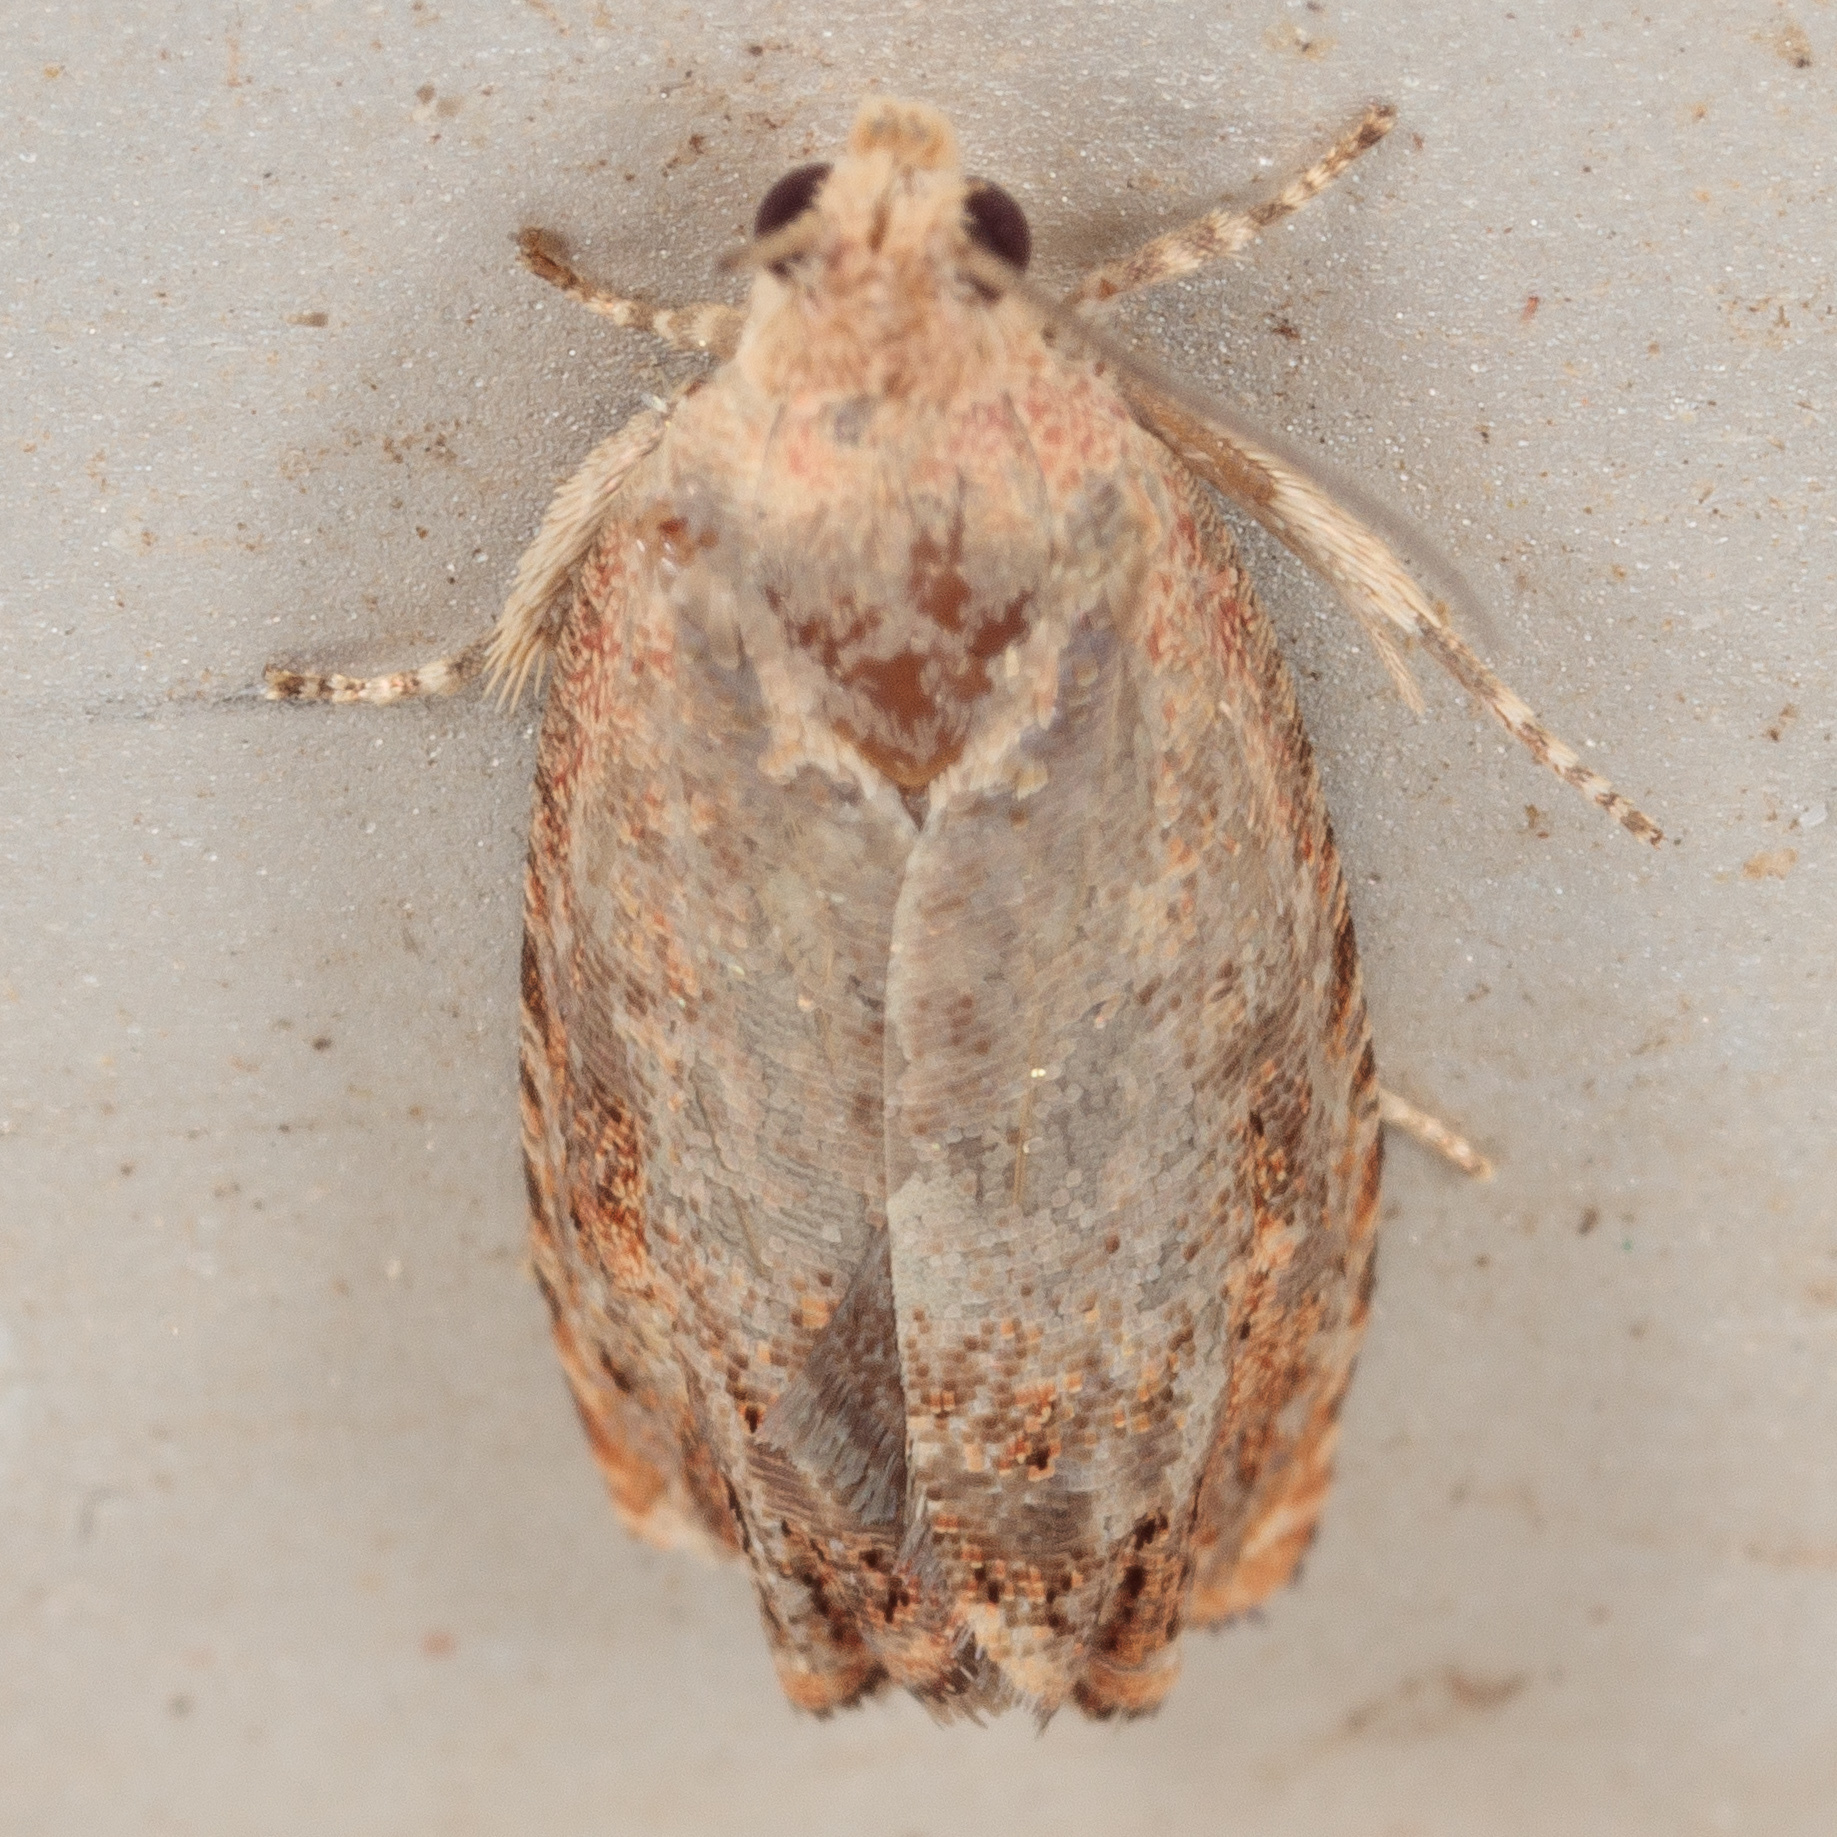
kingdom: Animalia
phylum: Arthropoda
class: Insecta
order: Lepidoptera
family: Tortricidae
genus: Cydia
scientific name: Cydia latiferreana
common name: Filbertworm moth
